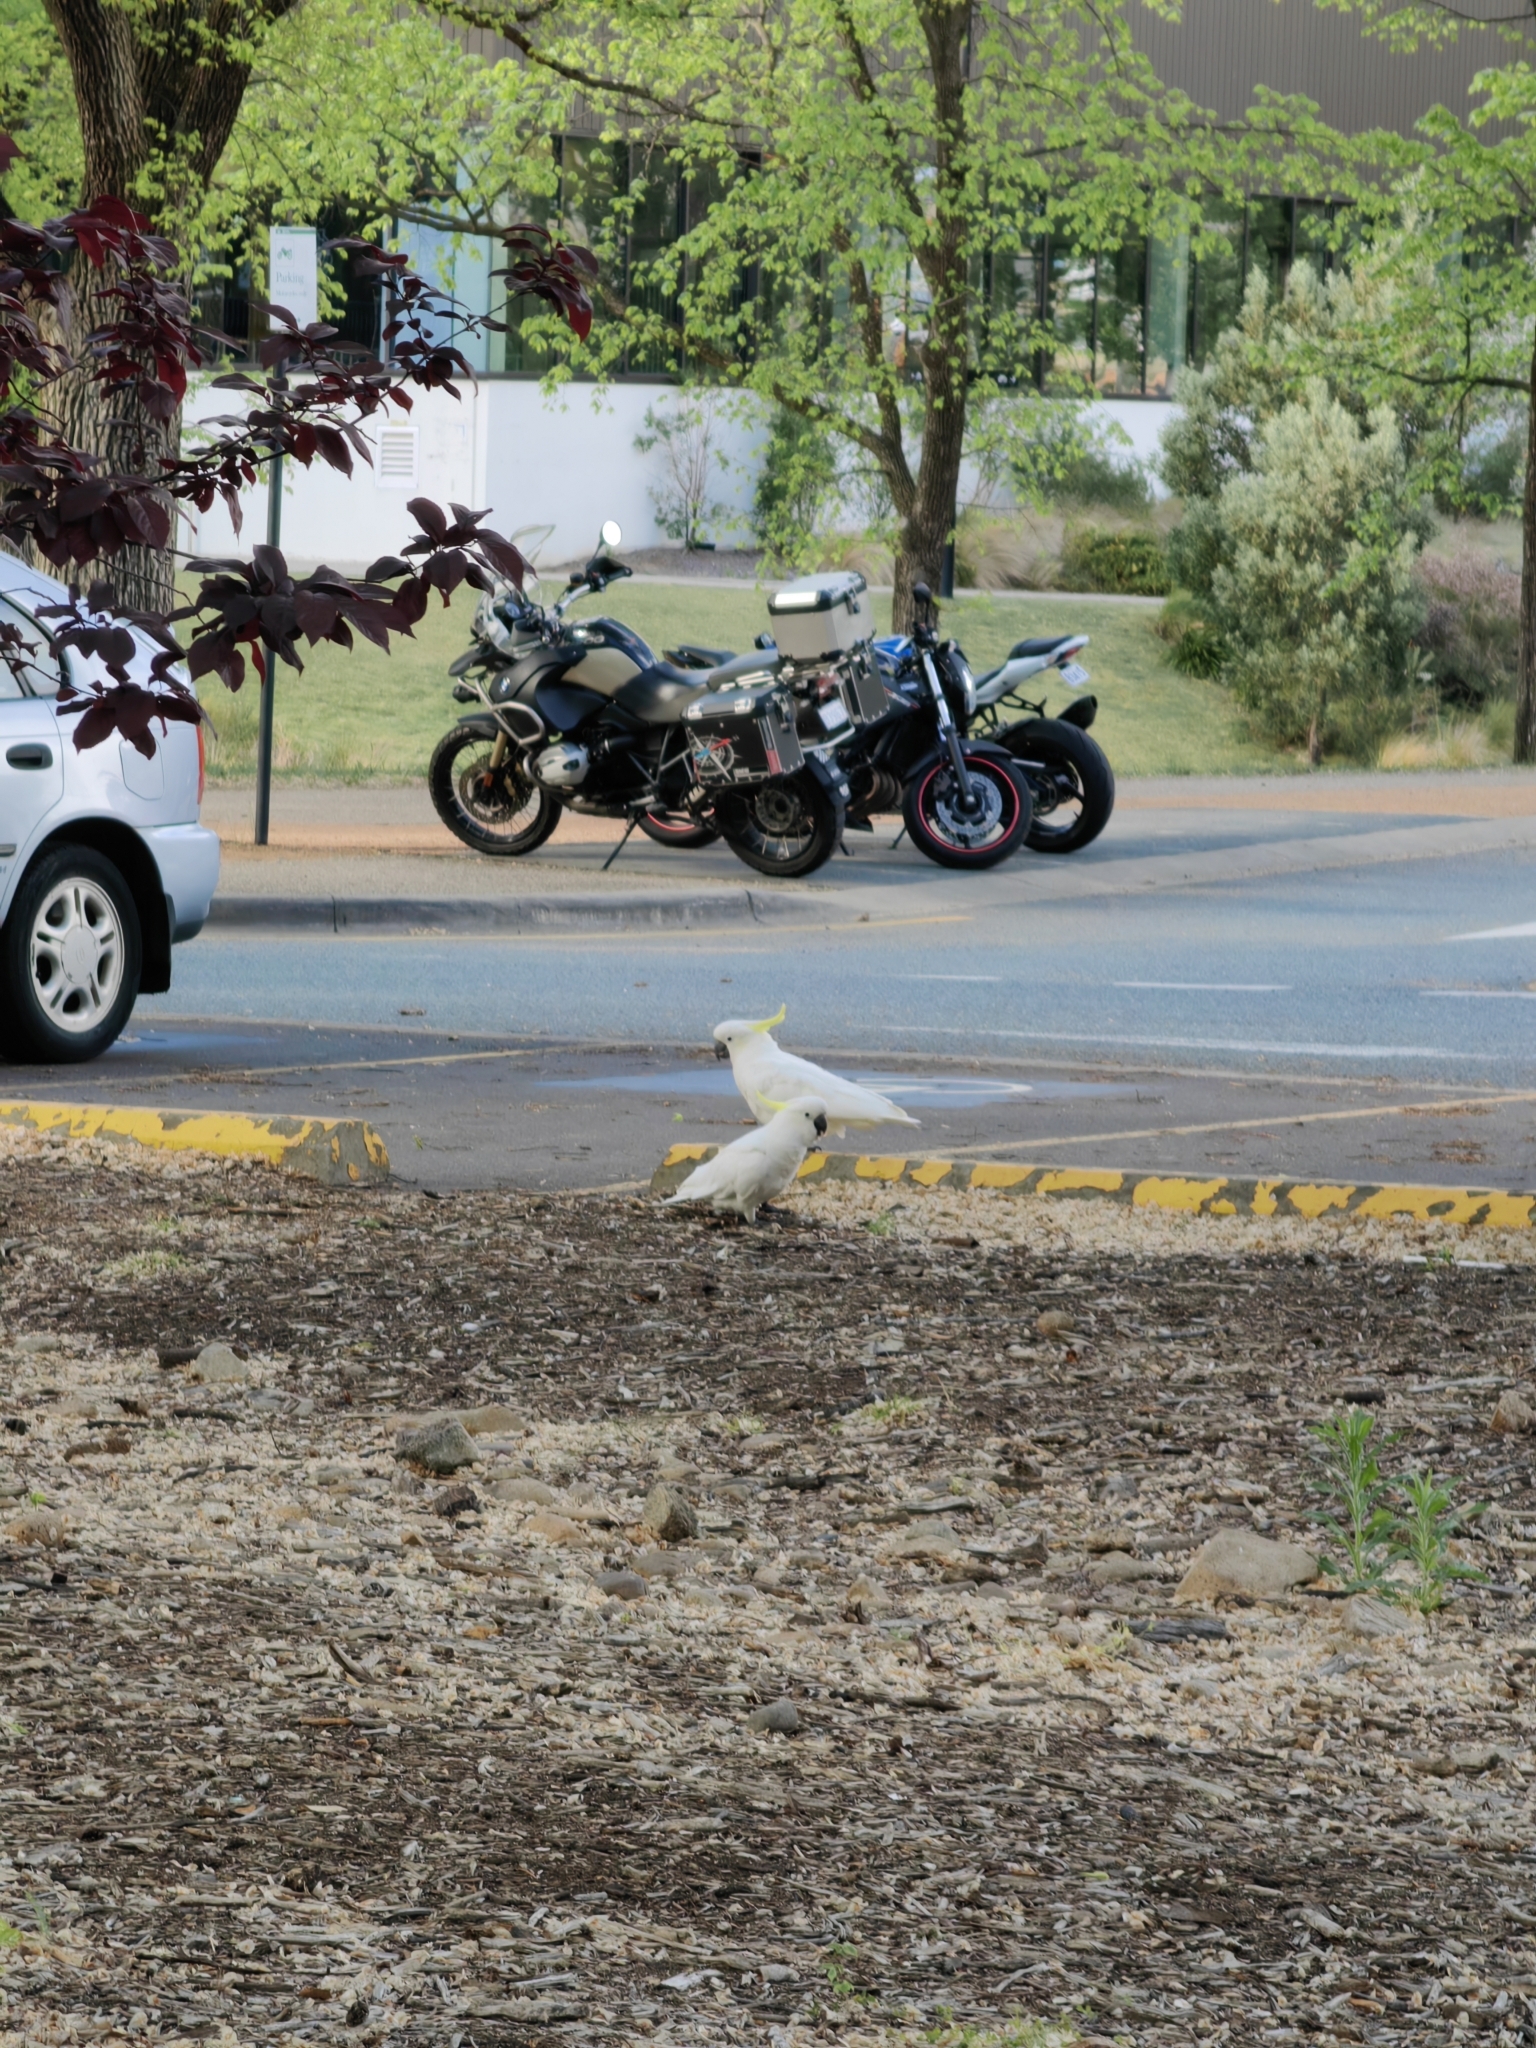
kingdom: Animalia
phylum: Chordata
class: Aves
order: Psittaciformes
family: Psittacidae
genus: Cacatua
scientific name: Cacatua galerita
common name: Sulphur-crested cockatoo
